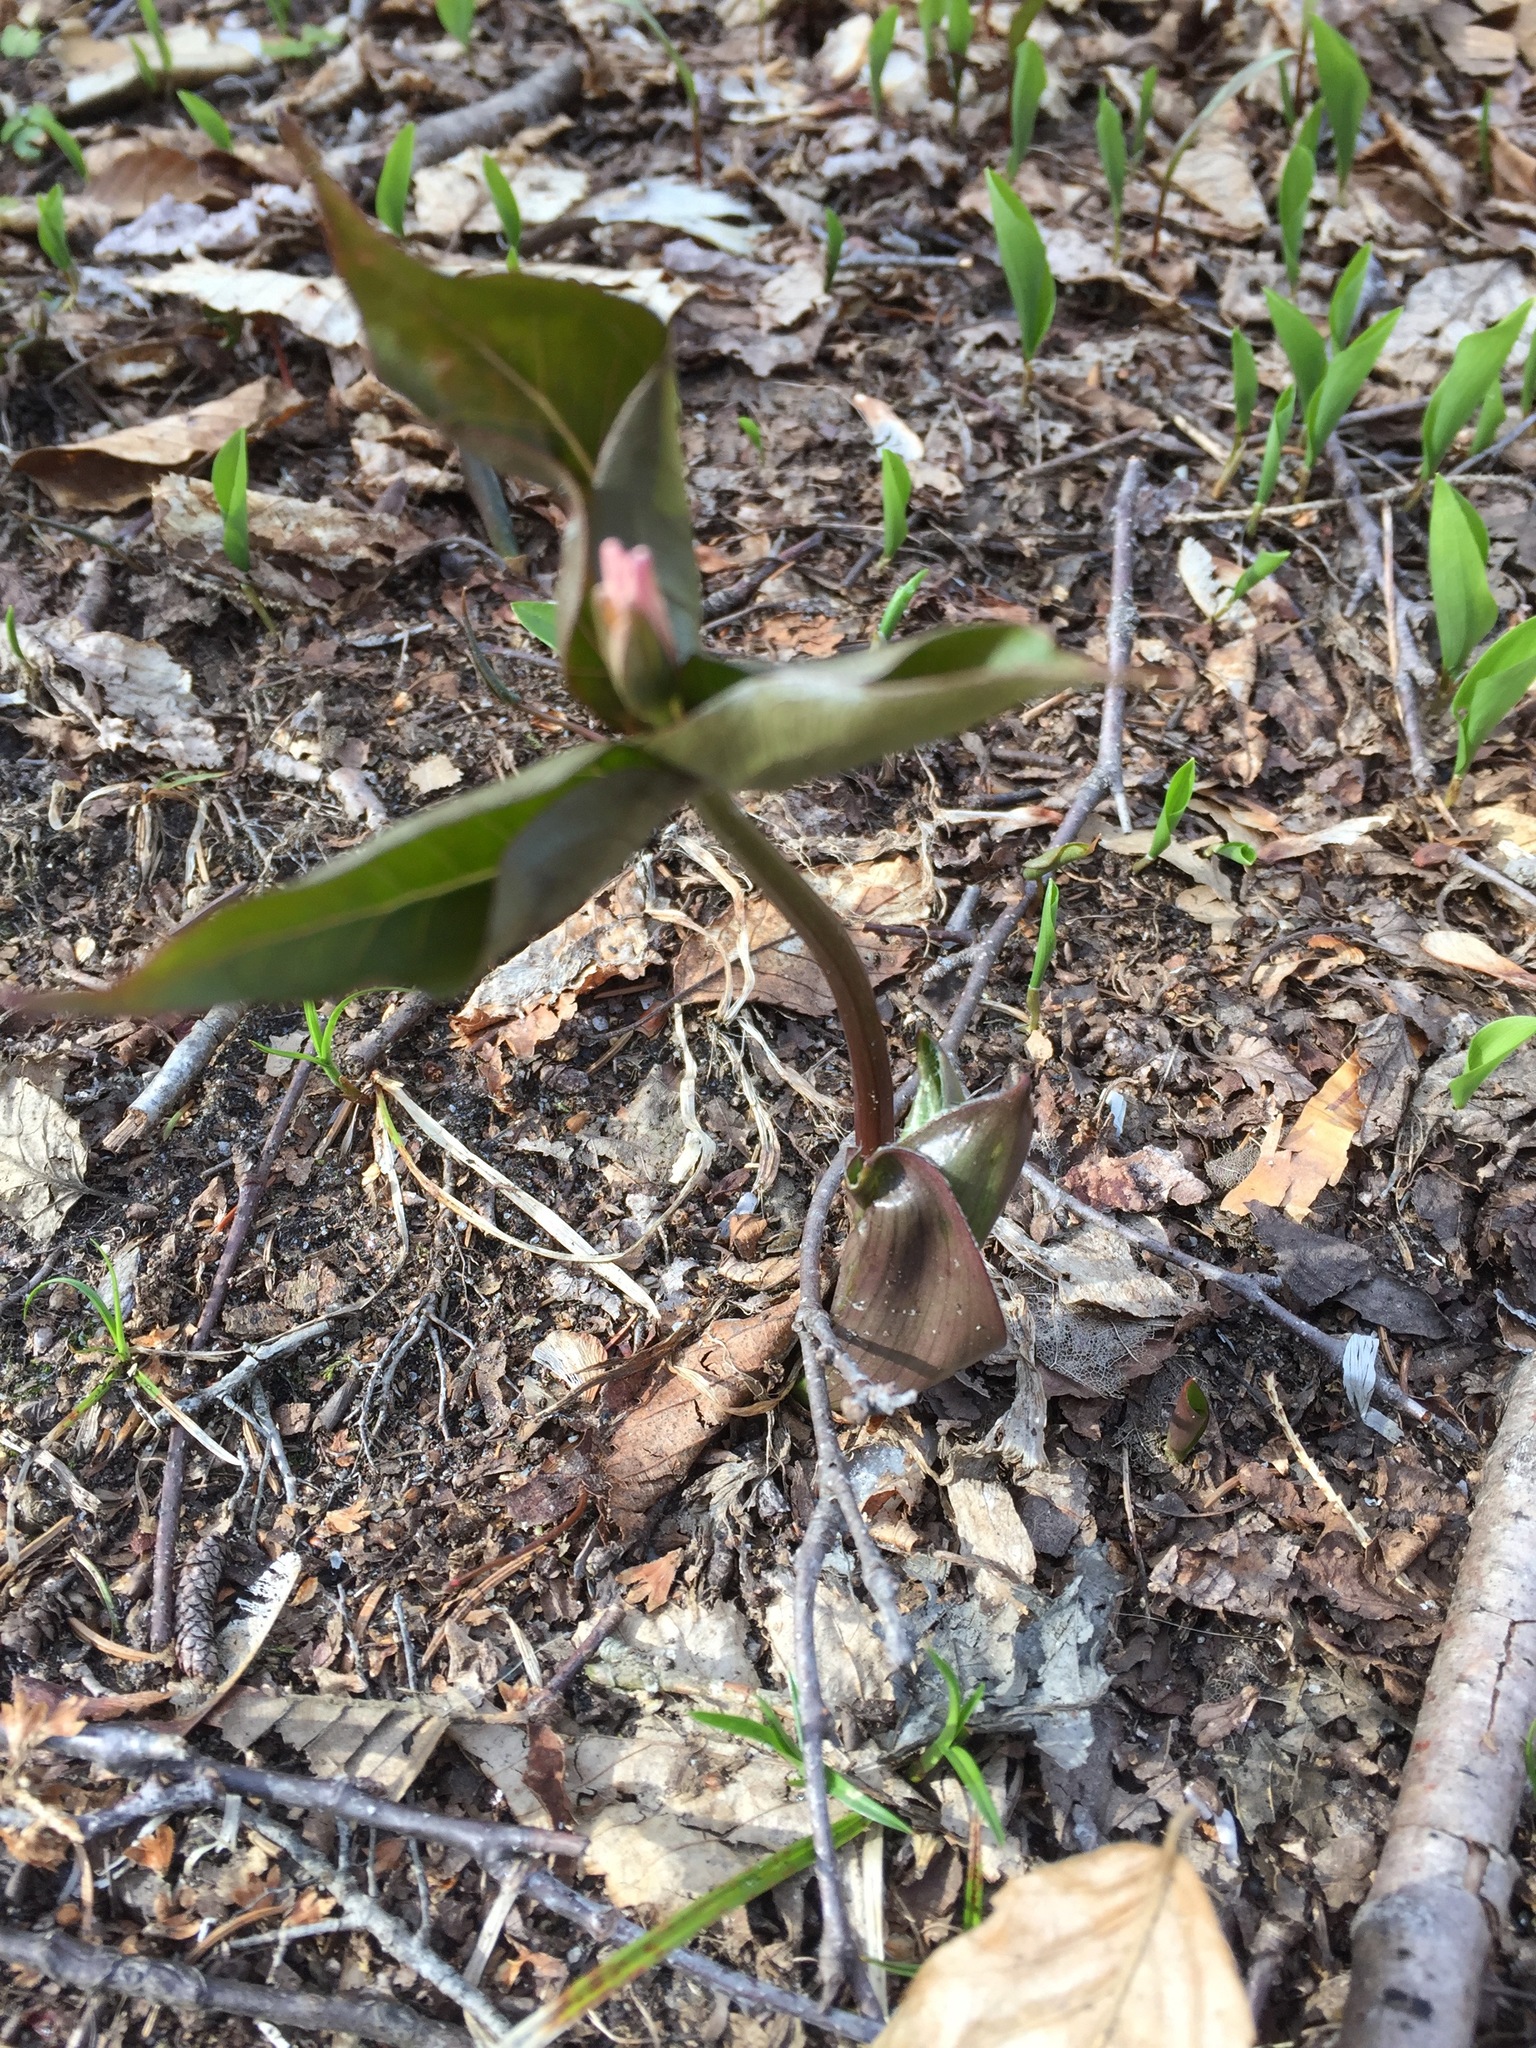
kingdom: Plantae
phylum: Tracheophyta
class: Liliopsida
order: Liliales
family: Melanthiaceae
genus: Trillium
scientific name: Trillium undulatum
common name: Paint trillium
